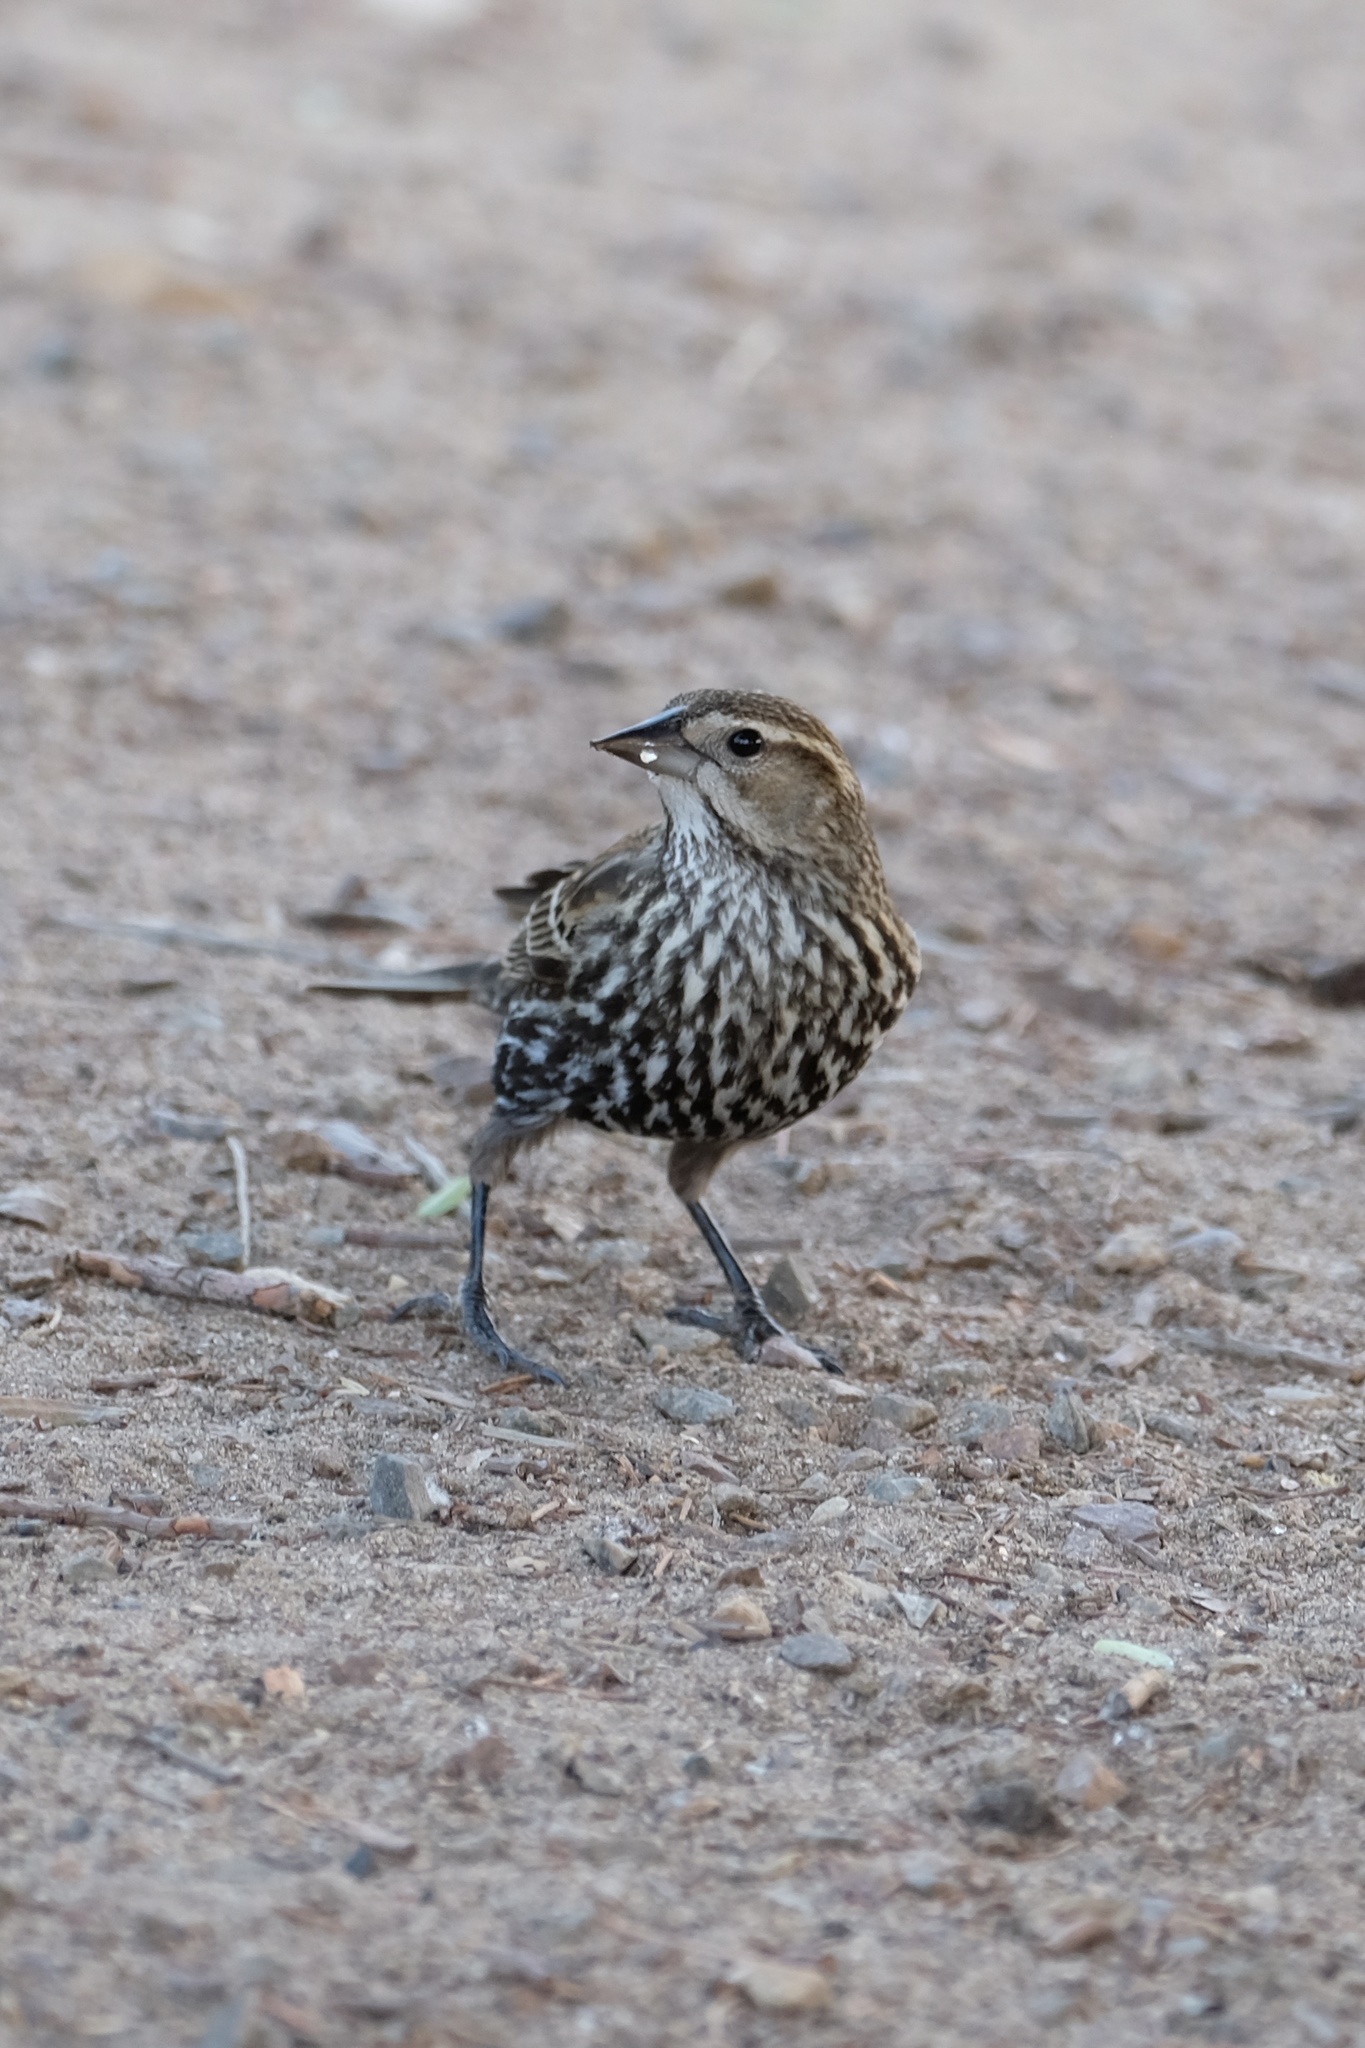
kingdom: Animalia
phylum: Chordata
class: Aves
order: Passeriformes
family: Icteridae
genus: Agelaius
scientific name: Agelaius phoeniceus
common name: Red-winged blackbird
